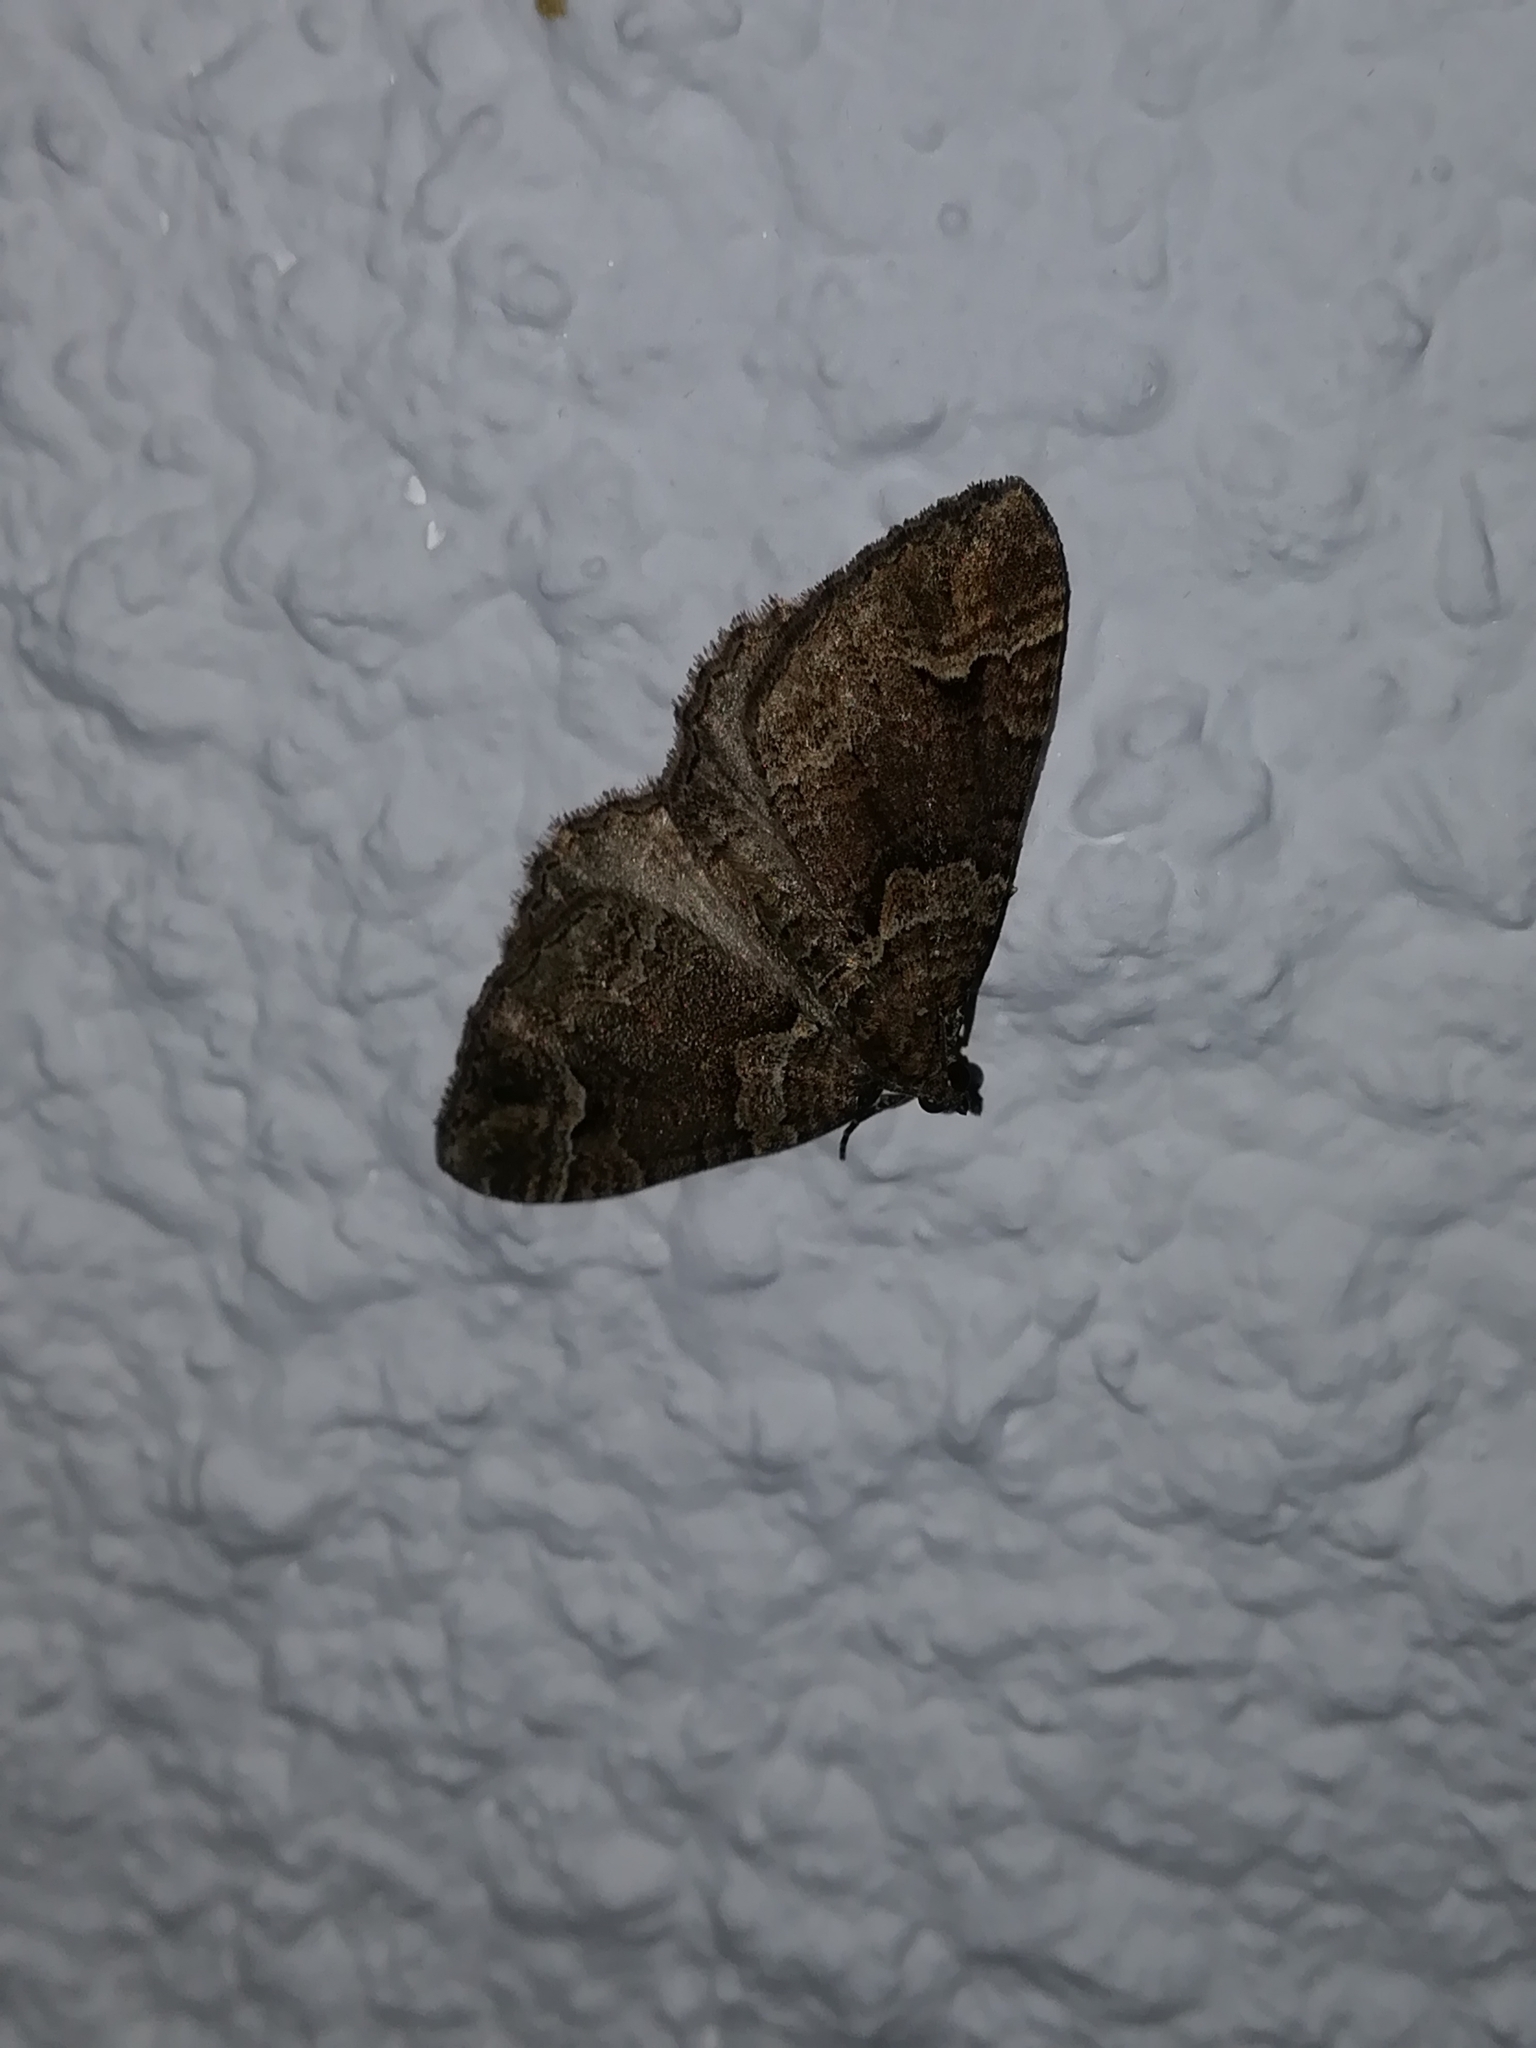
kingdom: Animalia
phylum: Arthropoda
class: Insecta
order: Lepidoptera
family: Geometridae
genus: Catarhoe
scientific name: Catarhoe basochesiata
